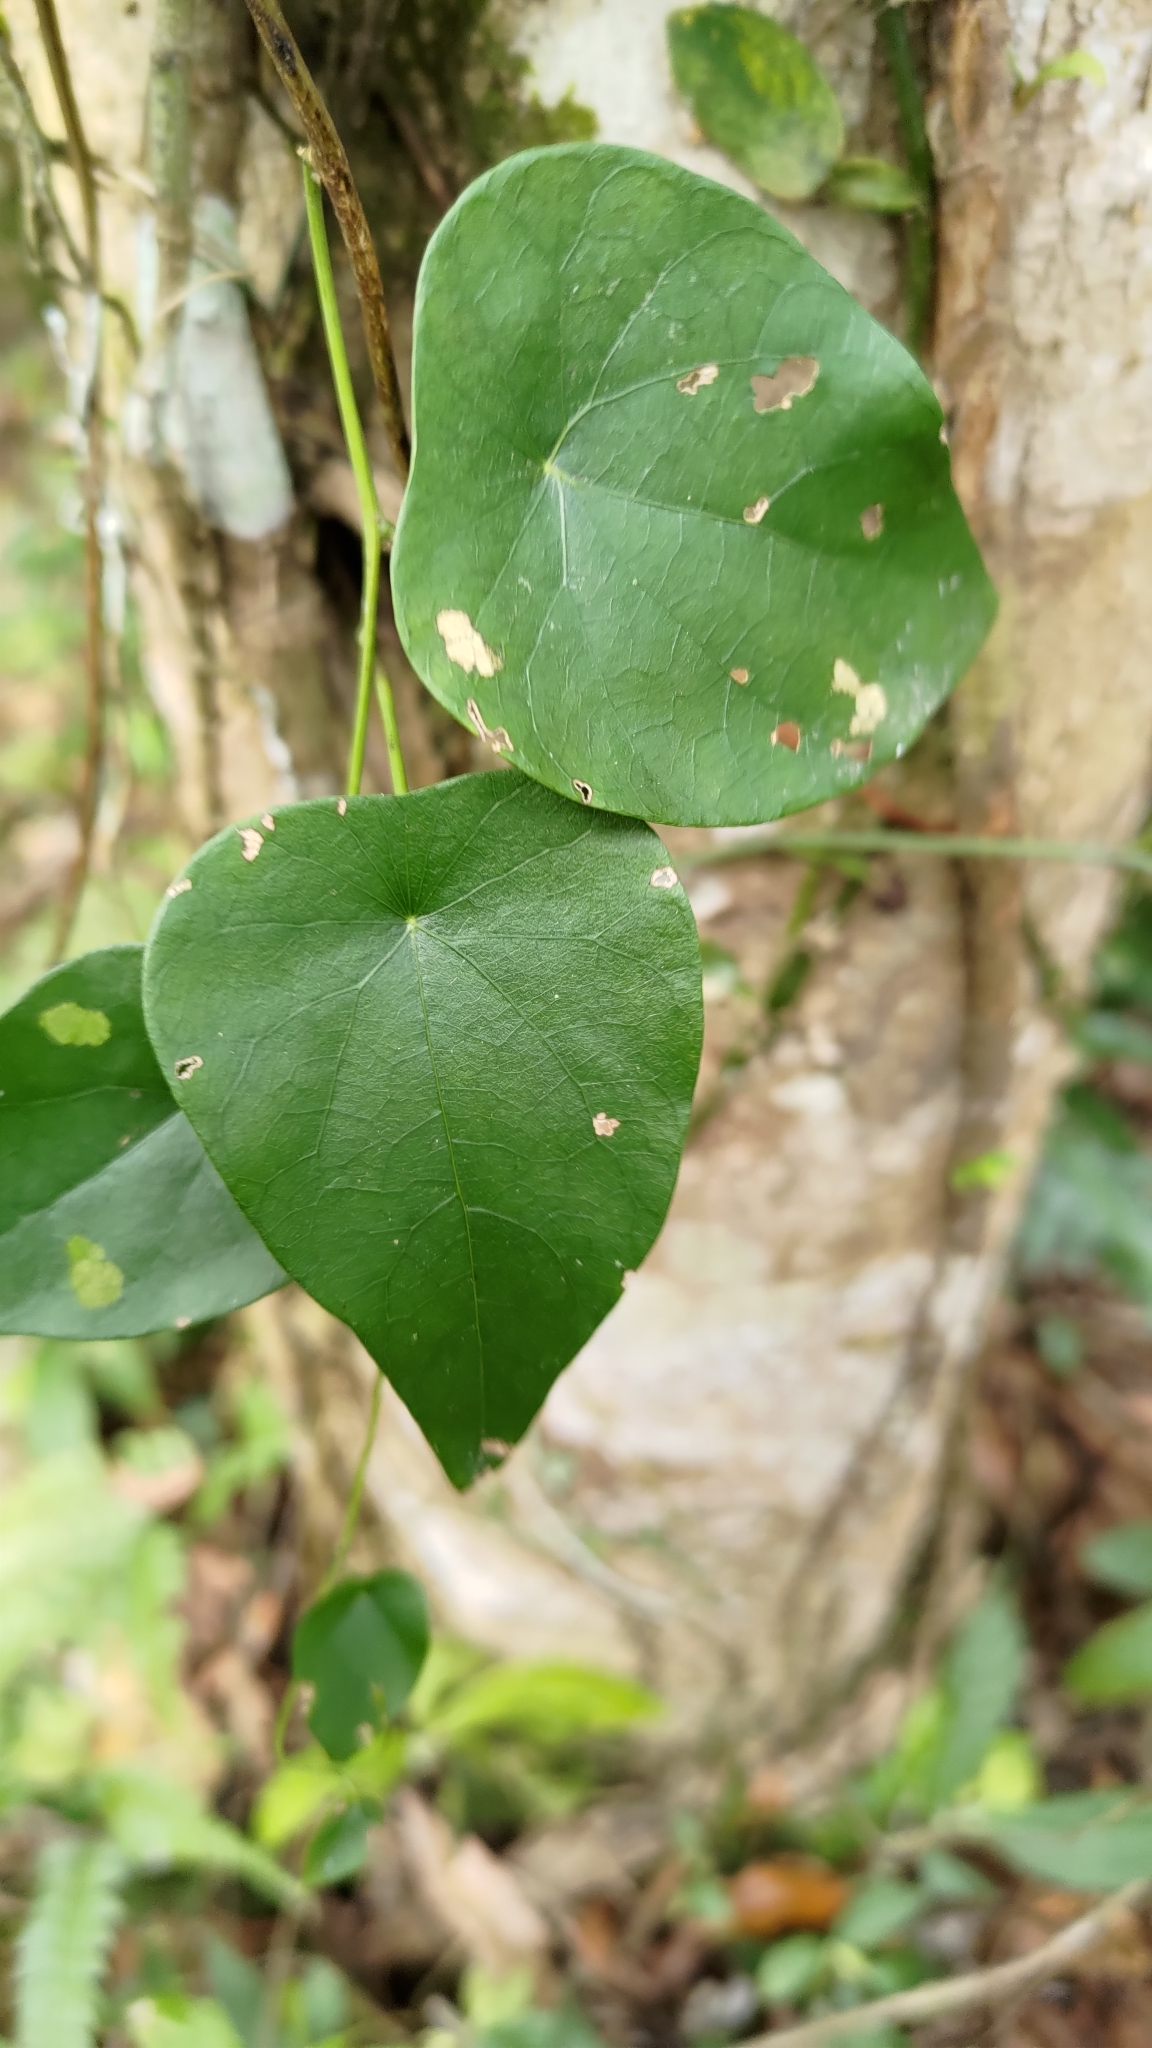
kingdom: Plantae
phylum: Tracheophyta
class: Magnoliopsida
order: Ranunculales
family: Menispermaceae
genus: Stephania
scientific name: Stephania longa
